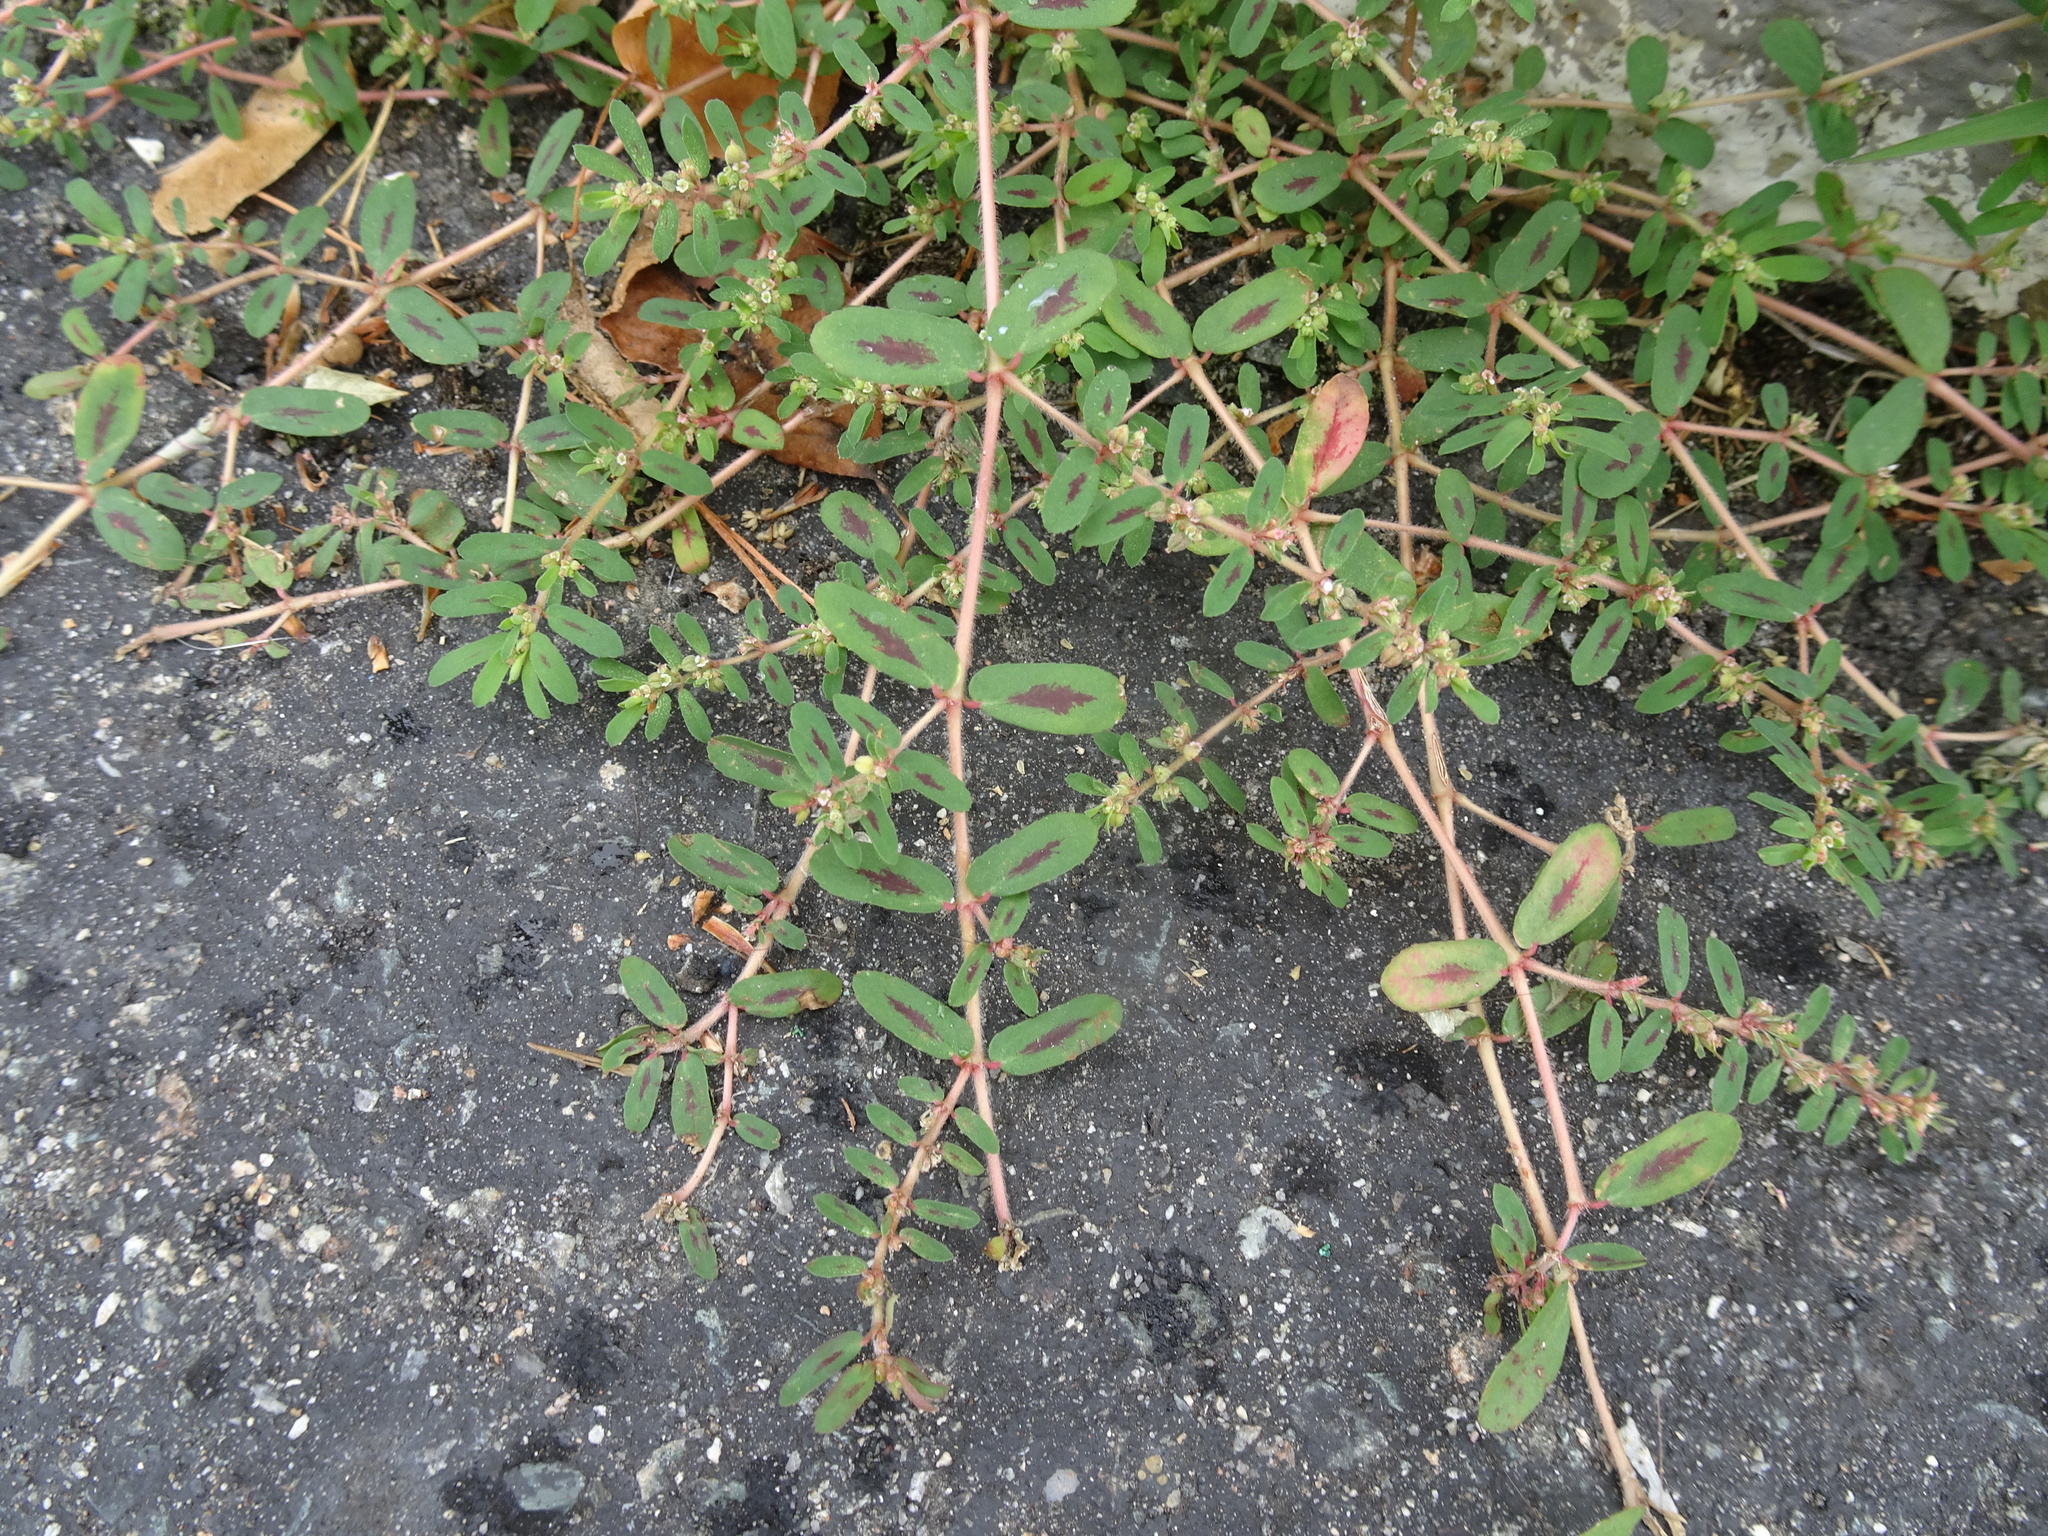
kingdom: Plantae
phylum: Tracheophyta
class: Magnoliopsida
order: Malpighiales
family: Euphorbiaceae
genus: Euphorbia
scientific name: Euphorbia maculata
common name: Spotted spurge
